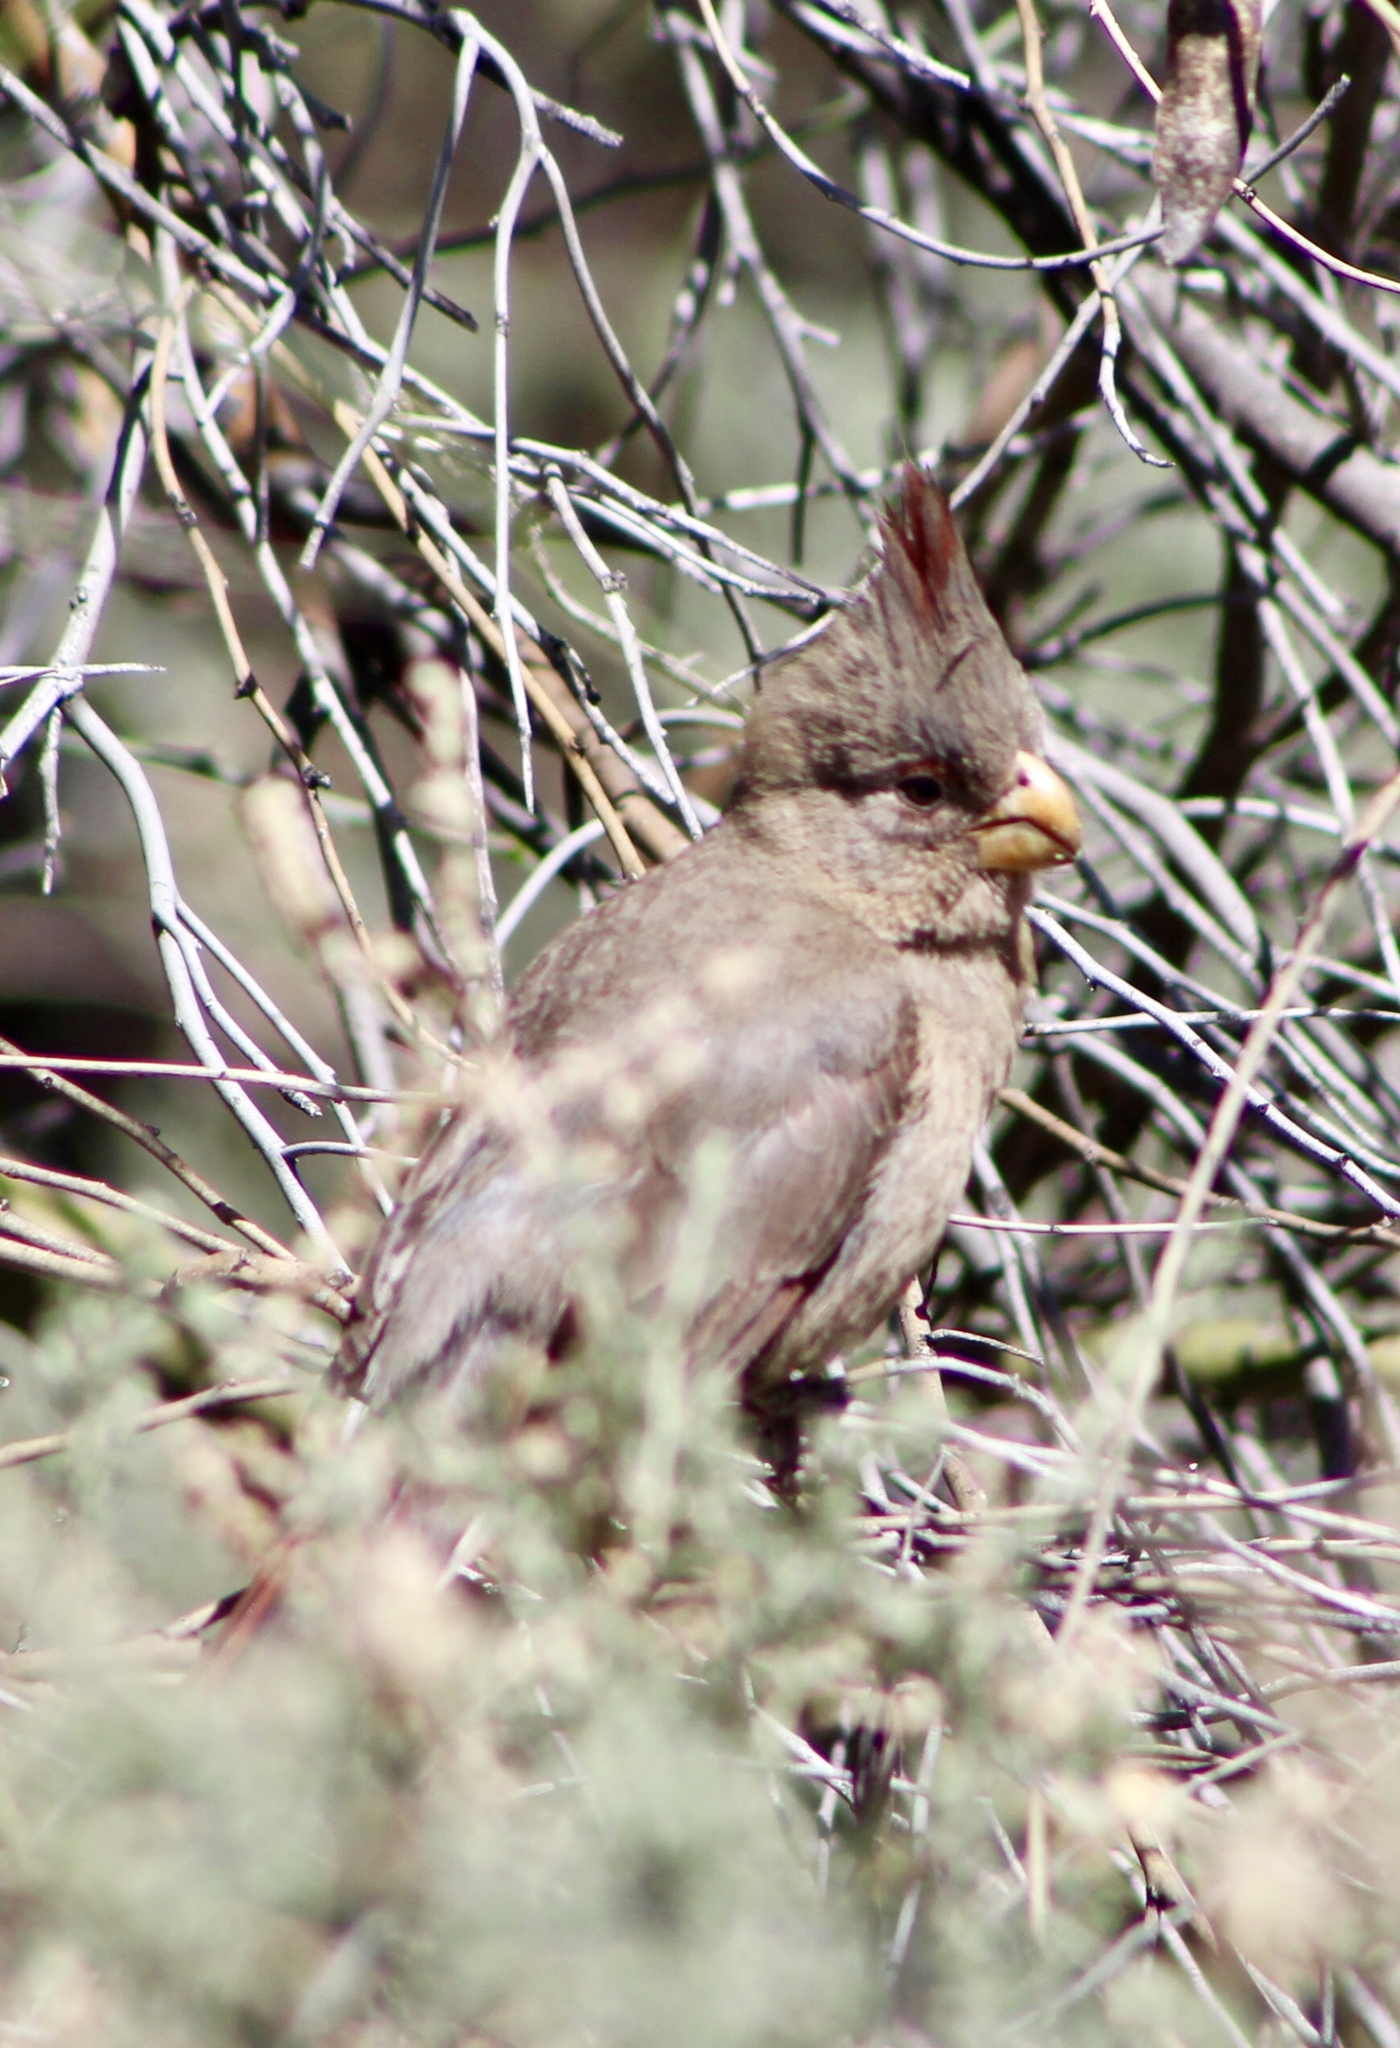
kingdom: Animalia
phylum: Chordata
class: Aves
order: Passeriformes
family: Cardinalidae
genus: Cardinalis
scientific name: Cardinalis sinuatus
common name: Pyrrhuloxia
